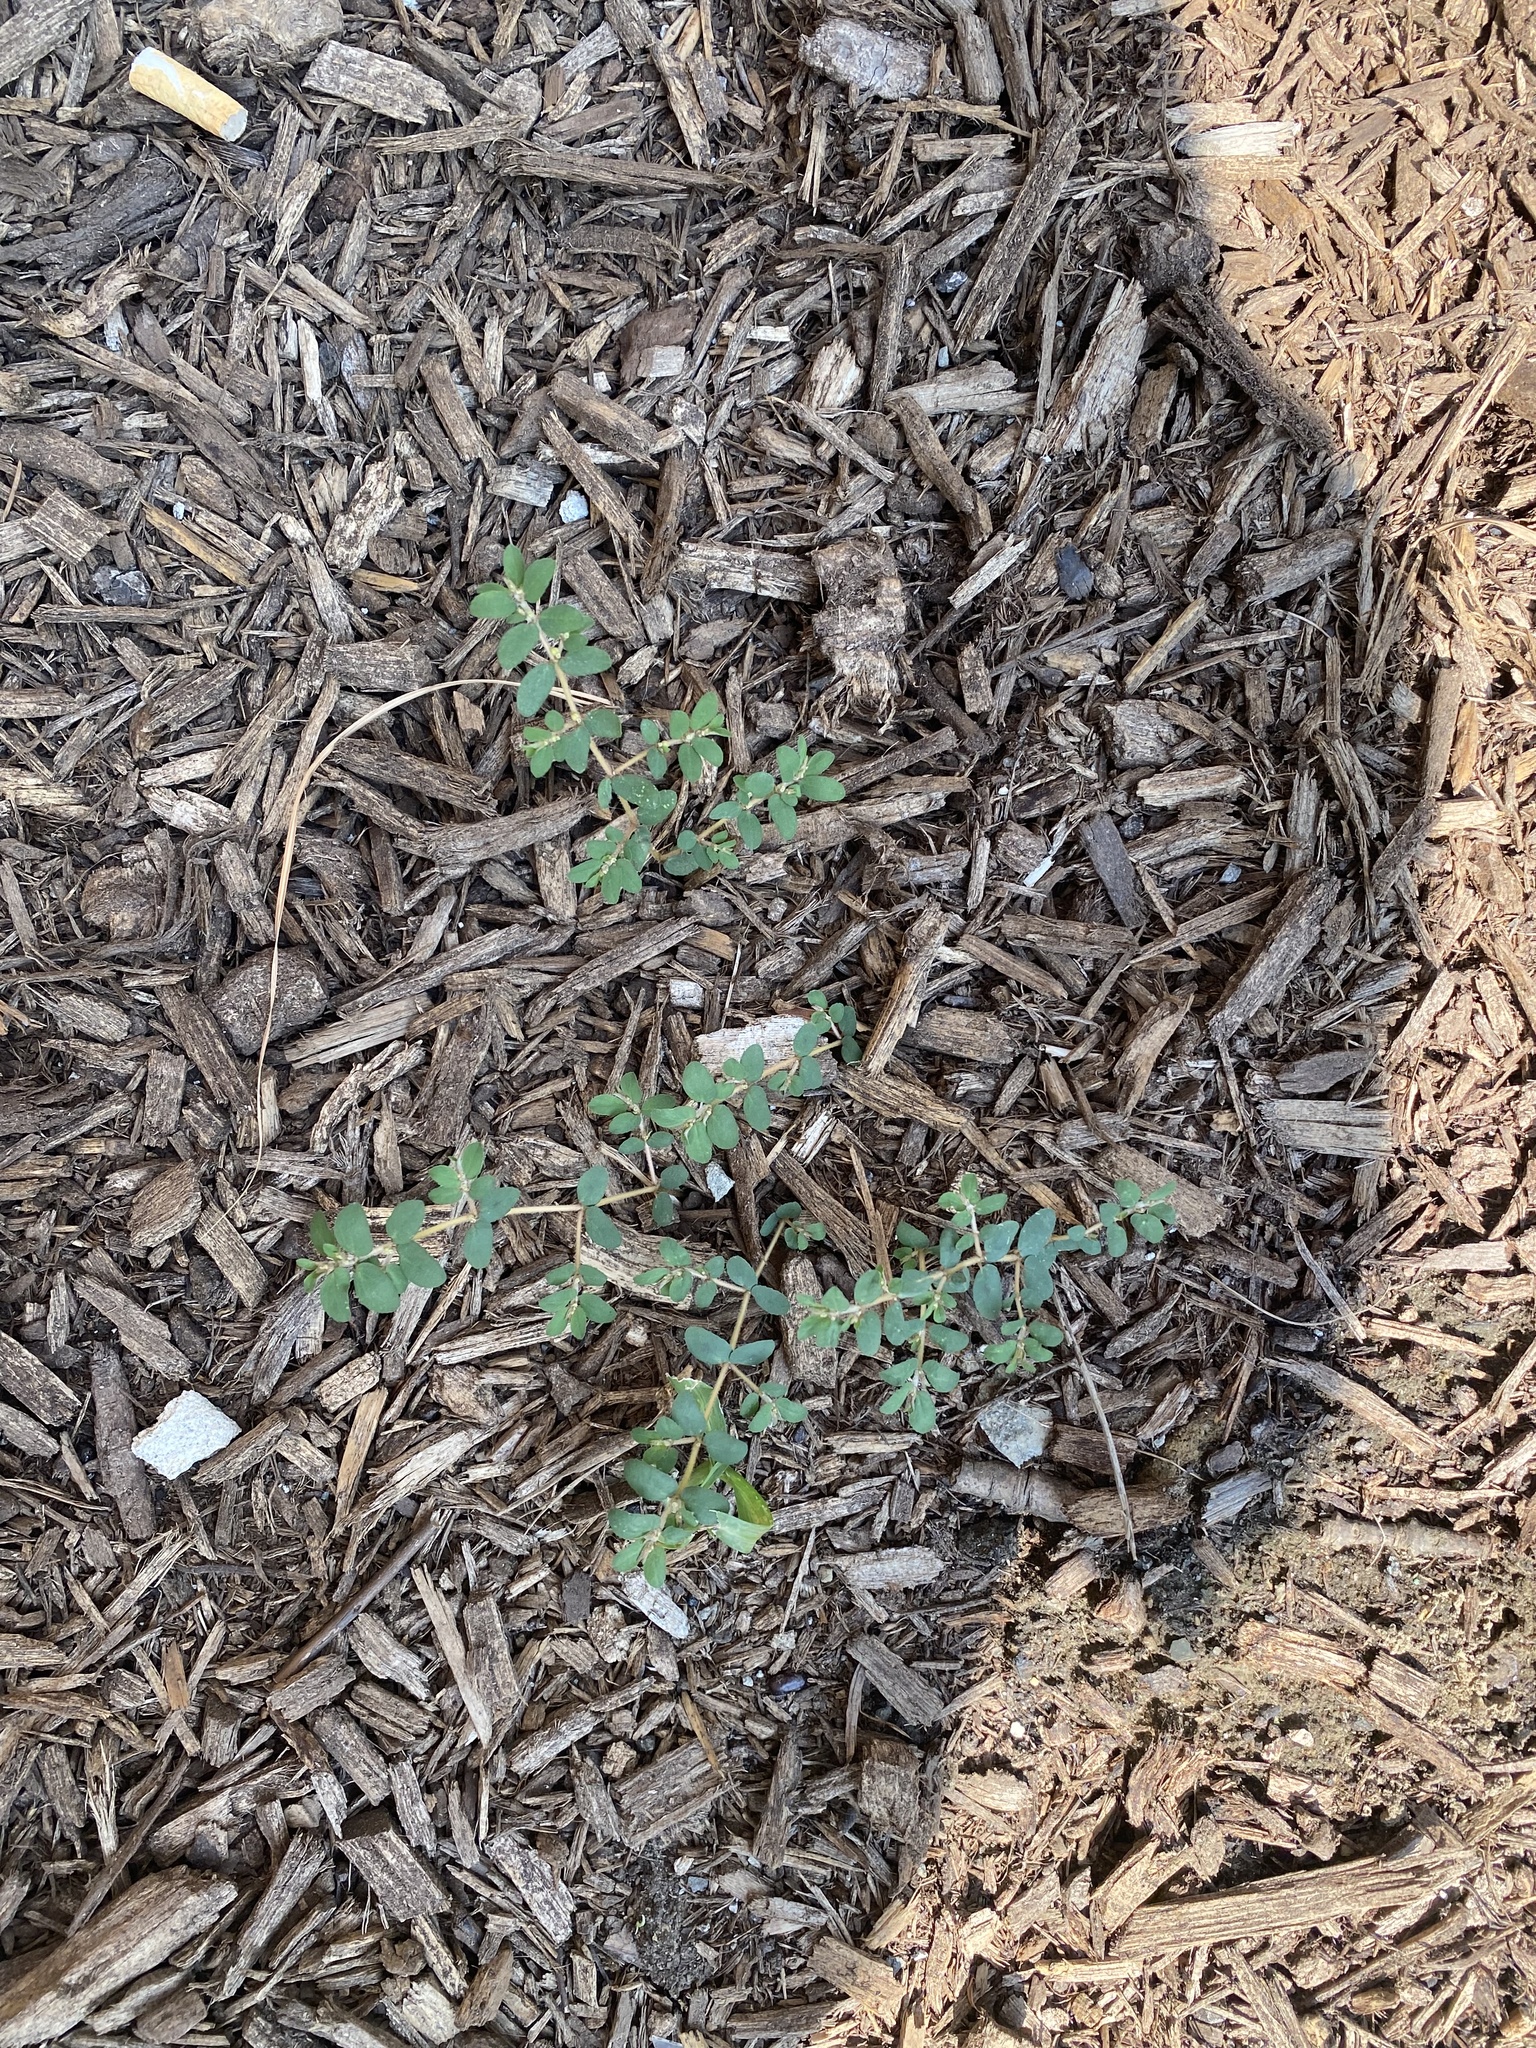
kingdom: Plantae
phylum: Tracheophyta
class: Magnoliopsida
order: Malpighiales
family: Euphorbiaceae
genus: Euphorbia
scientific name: Euphorbia maculata
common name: Spotted spurge
